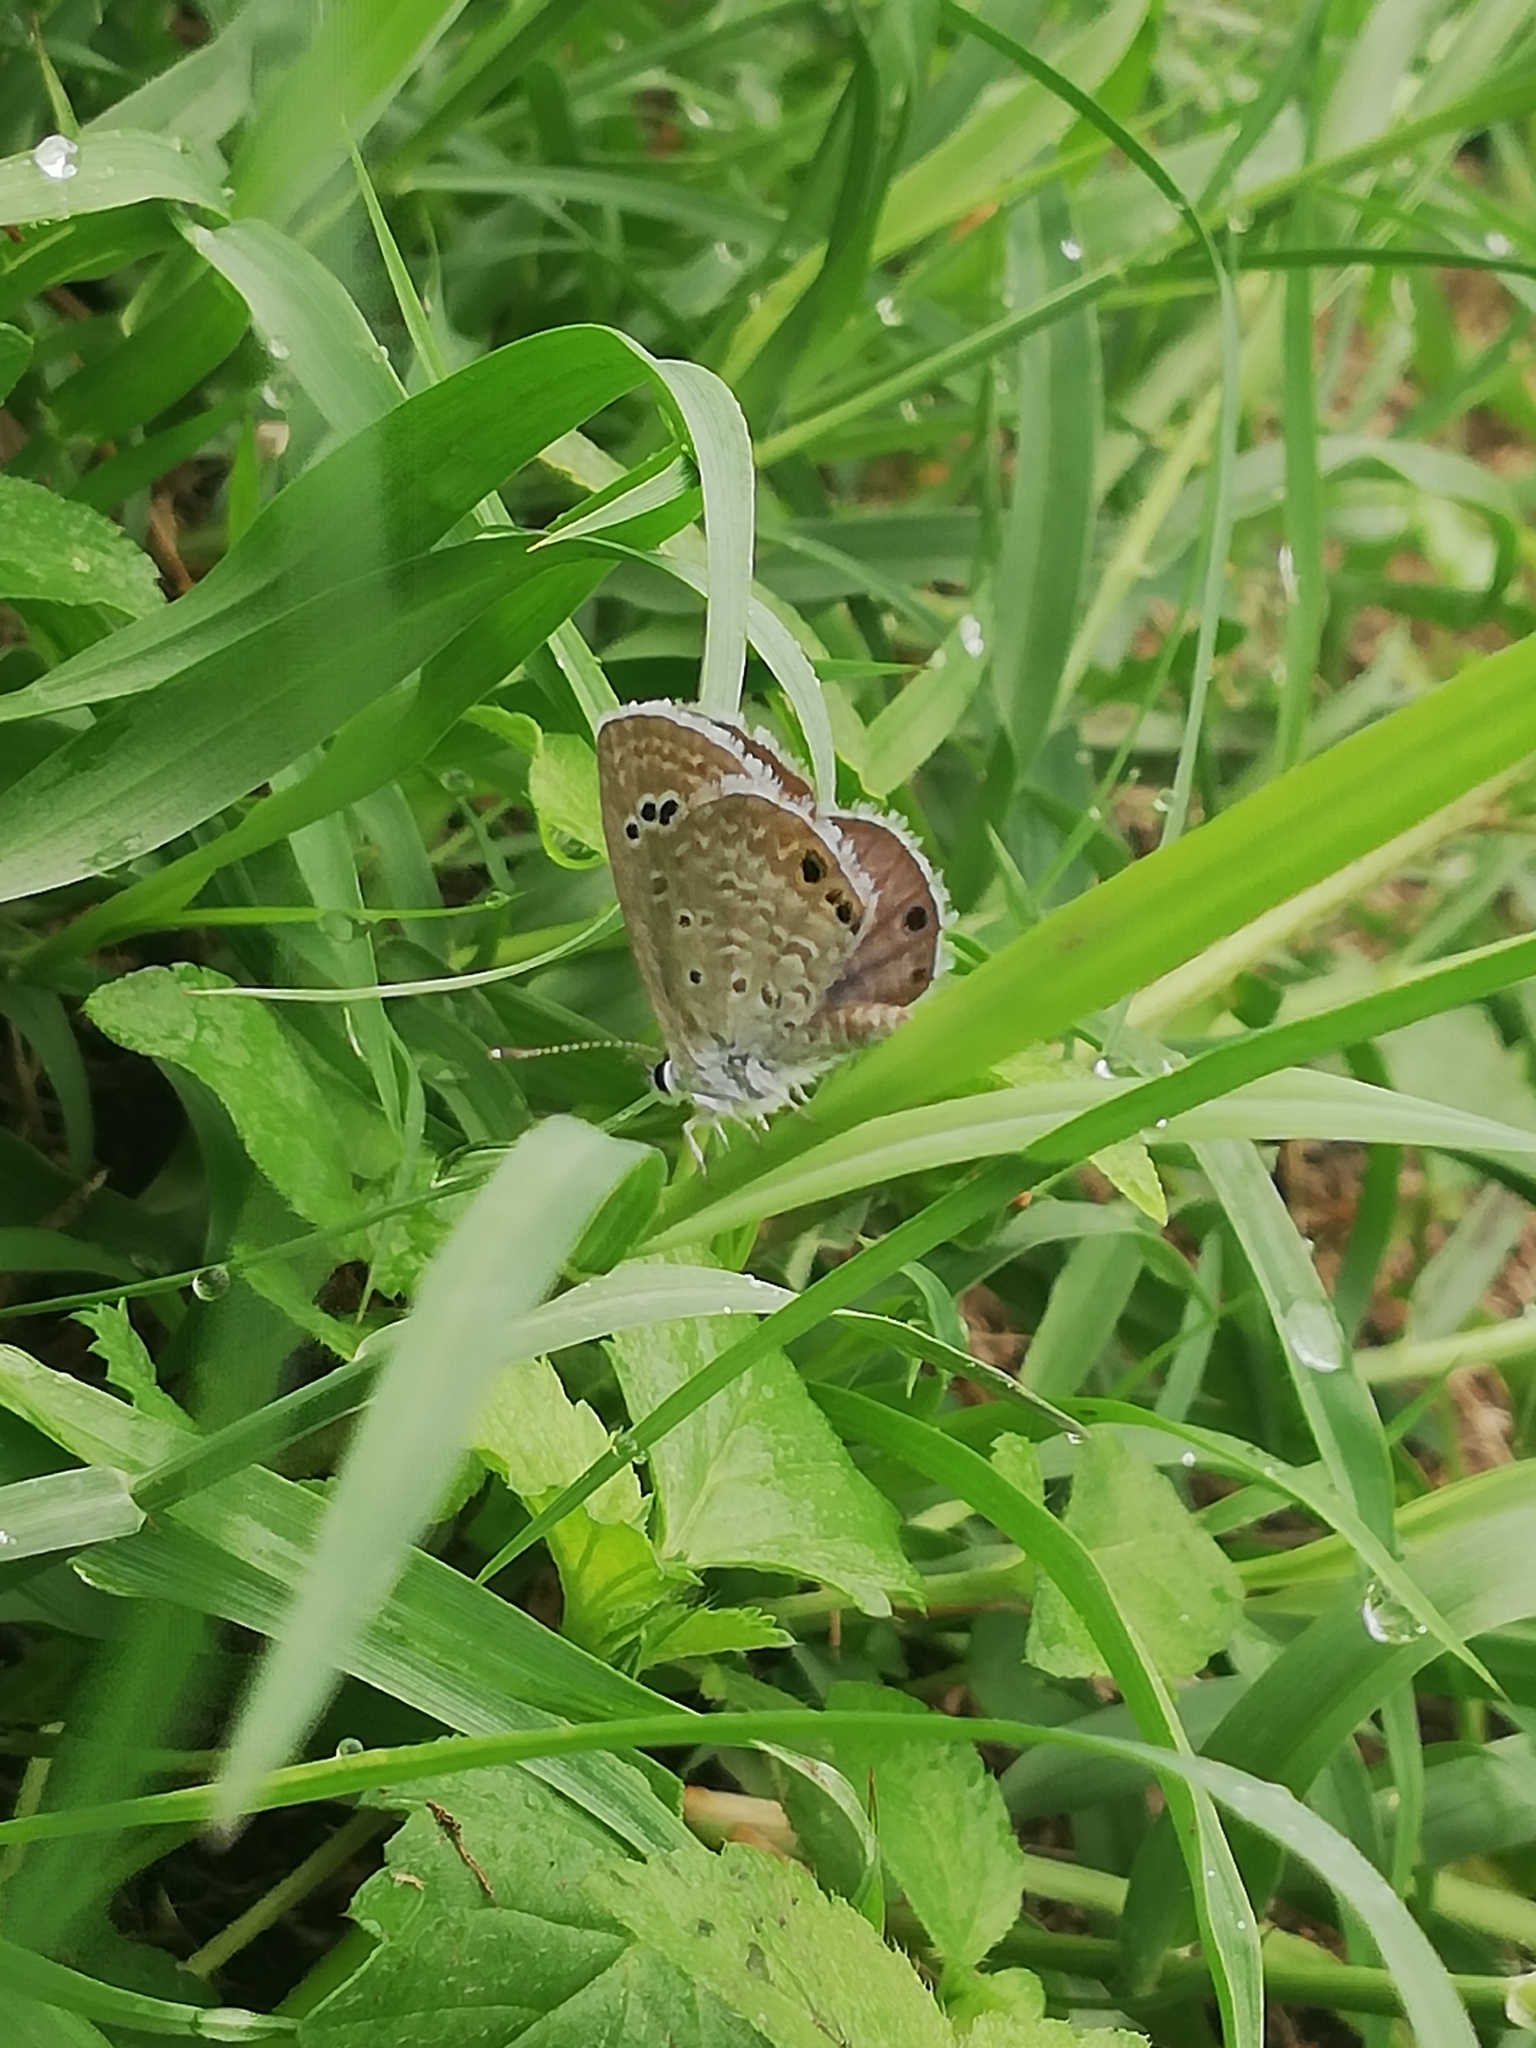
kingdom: Animalia
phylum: Arthropoda
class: Insecta
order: Lepidoptera
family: Lycaenidae
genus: Echinargus
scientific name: Echinargus isola
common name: Reakirt's blue
